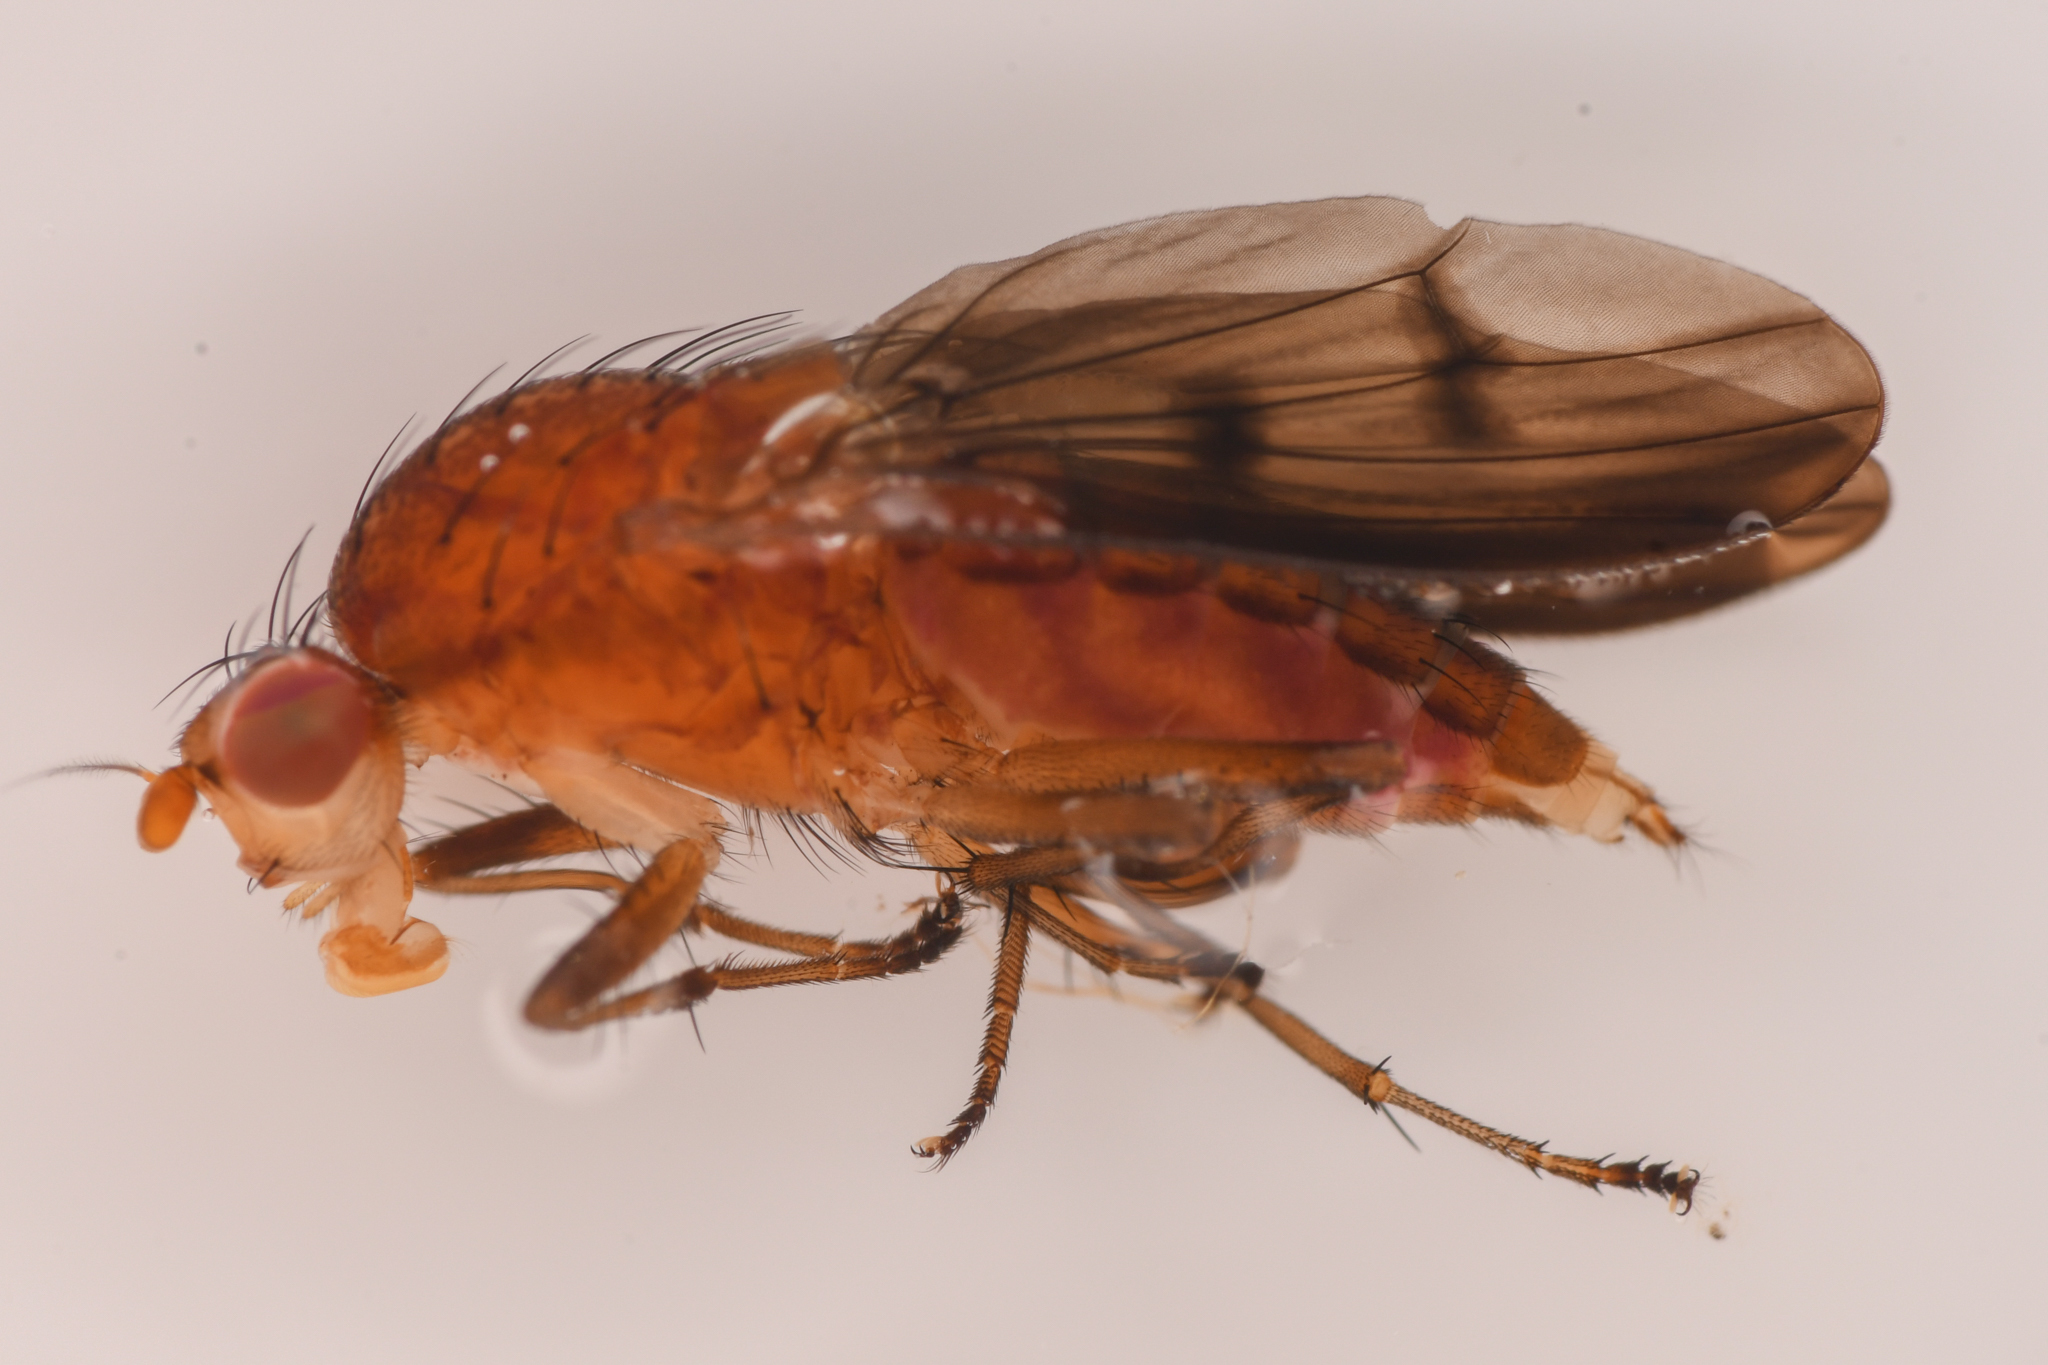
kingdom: Animalia
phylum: Arthropoda
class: Insecta
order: Diptera
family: Heleomyzidae
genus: Suillia
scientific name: Suillia barberi
